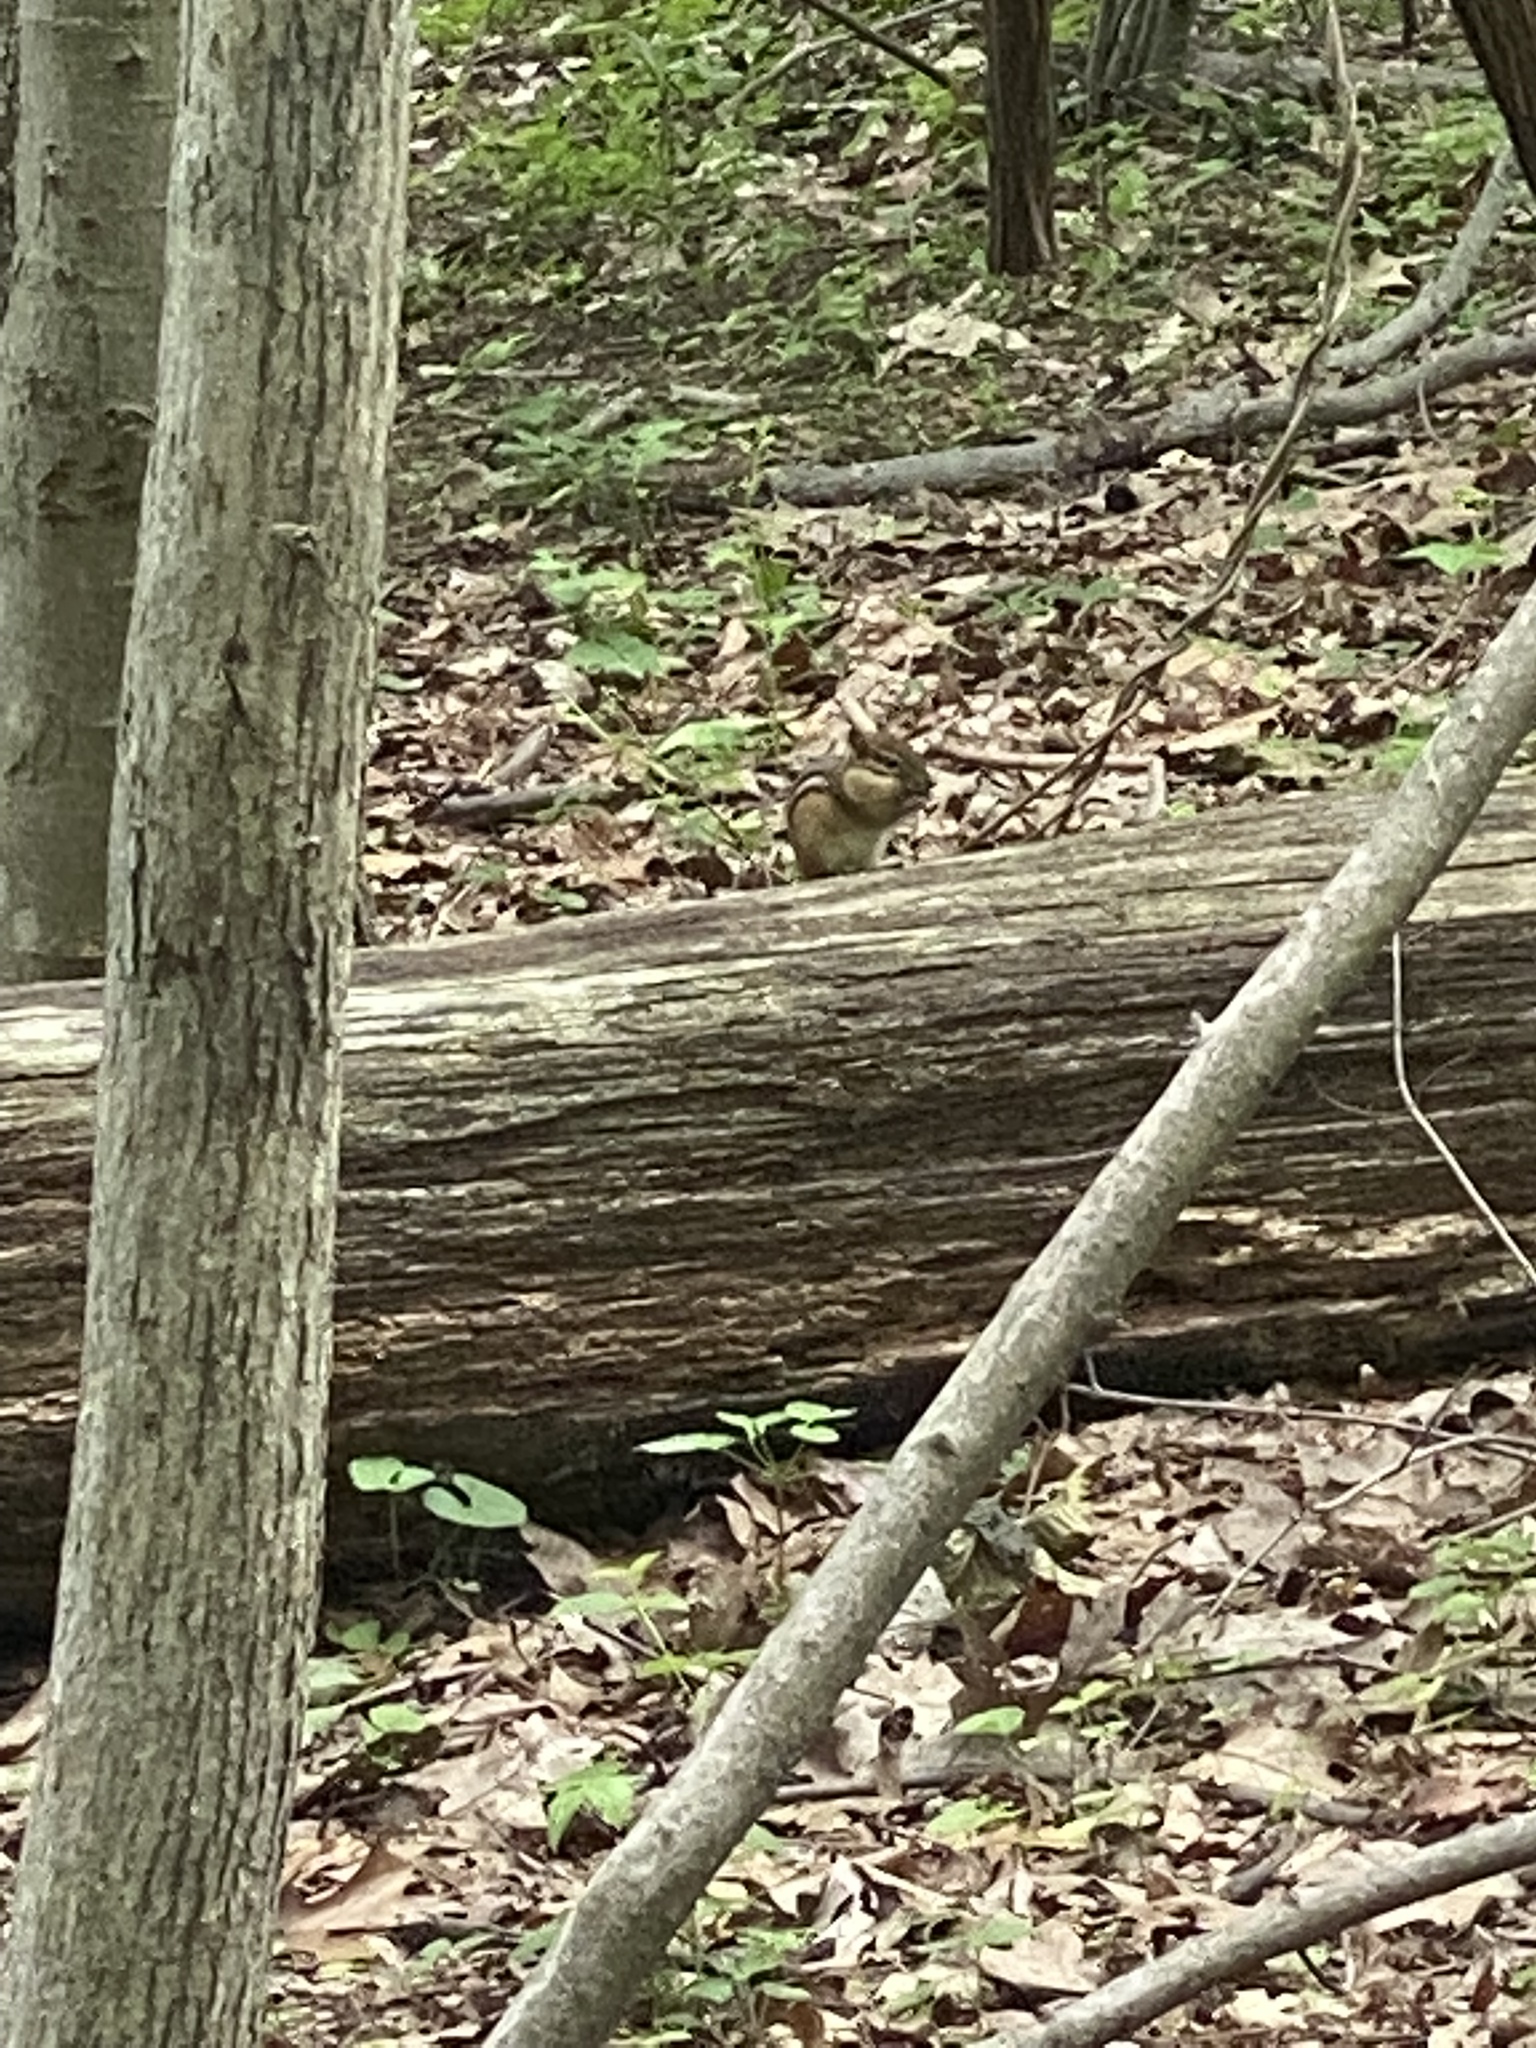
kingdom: Animalia
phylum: Chordata
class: Mammalia
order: Rodentia
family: Sciuridae
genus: Tamias
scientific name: Tamias striatus
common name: Eastern chipmunk
